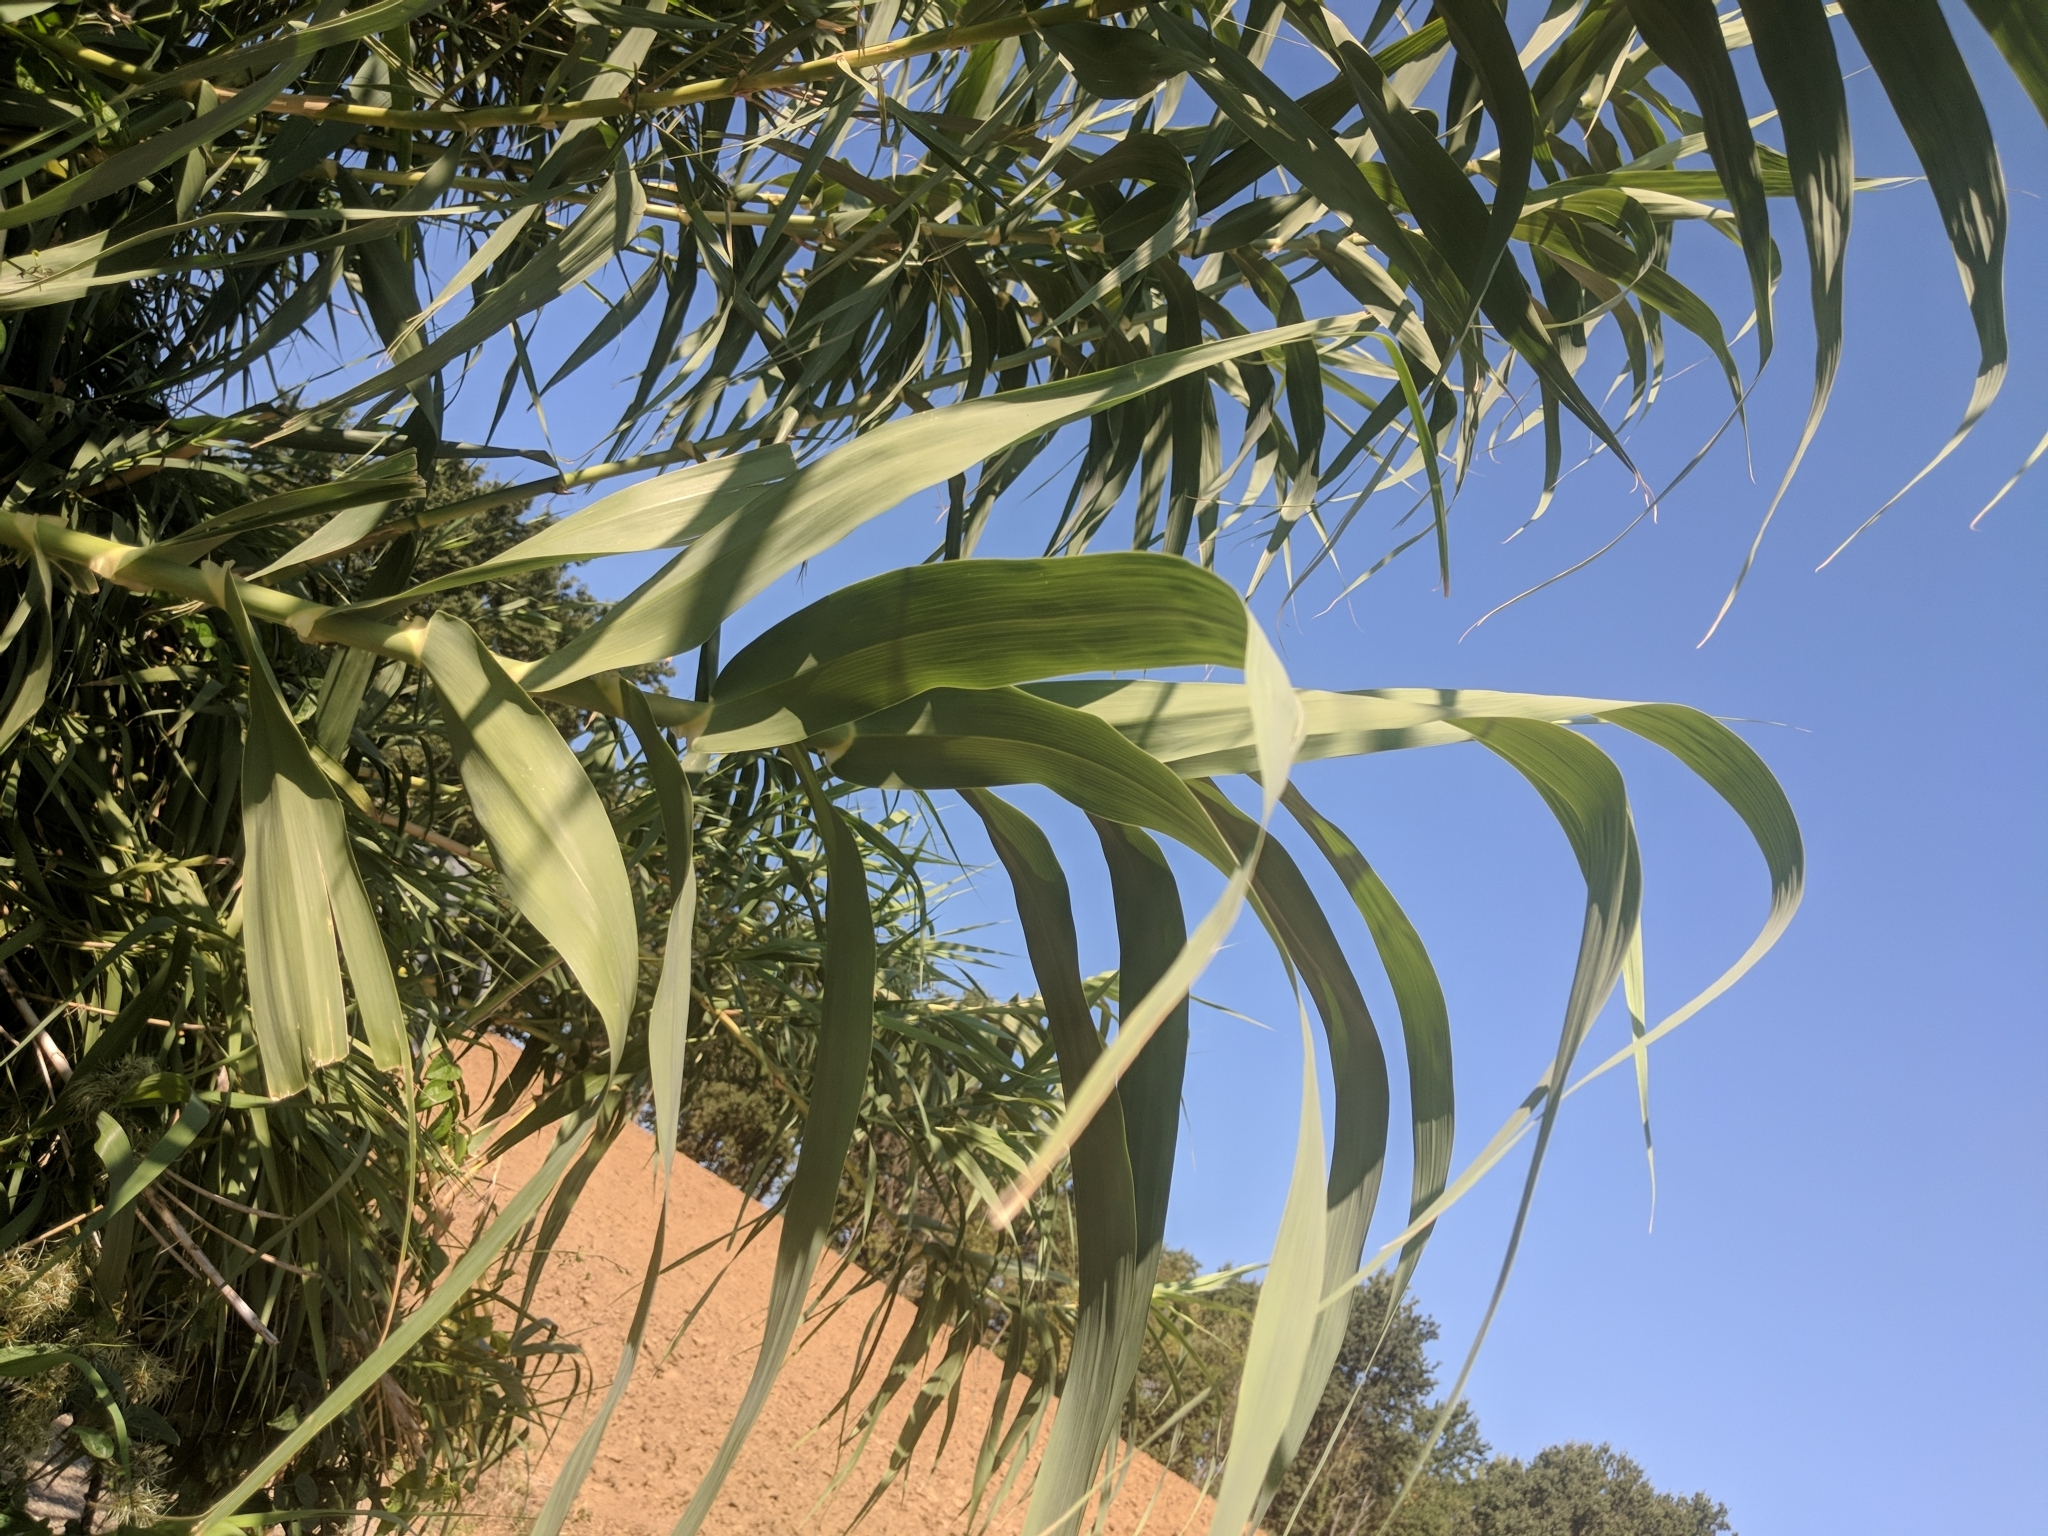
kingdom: Plantae
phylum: Tracheophyta
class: Liliopsida
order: Poales
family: Poaceae
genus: Arundo
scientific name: Arundo donax
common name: Giant reed
